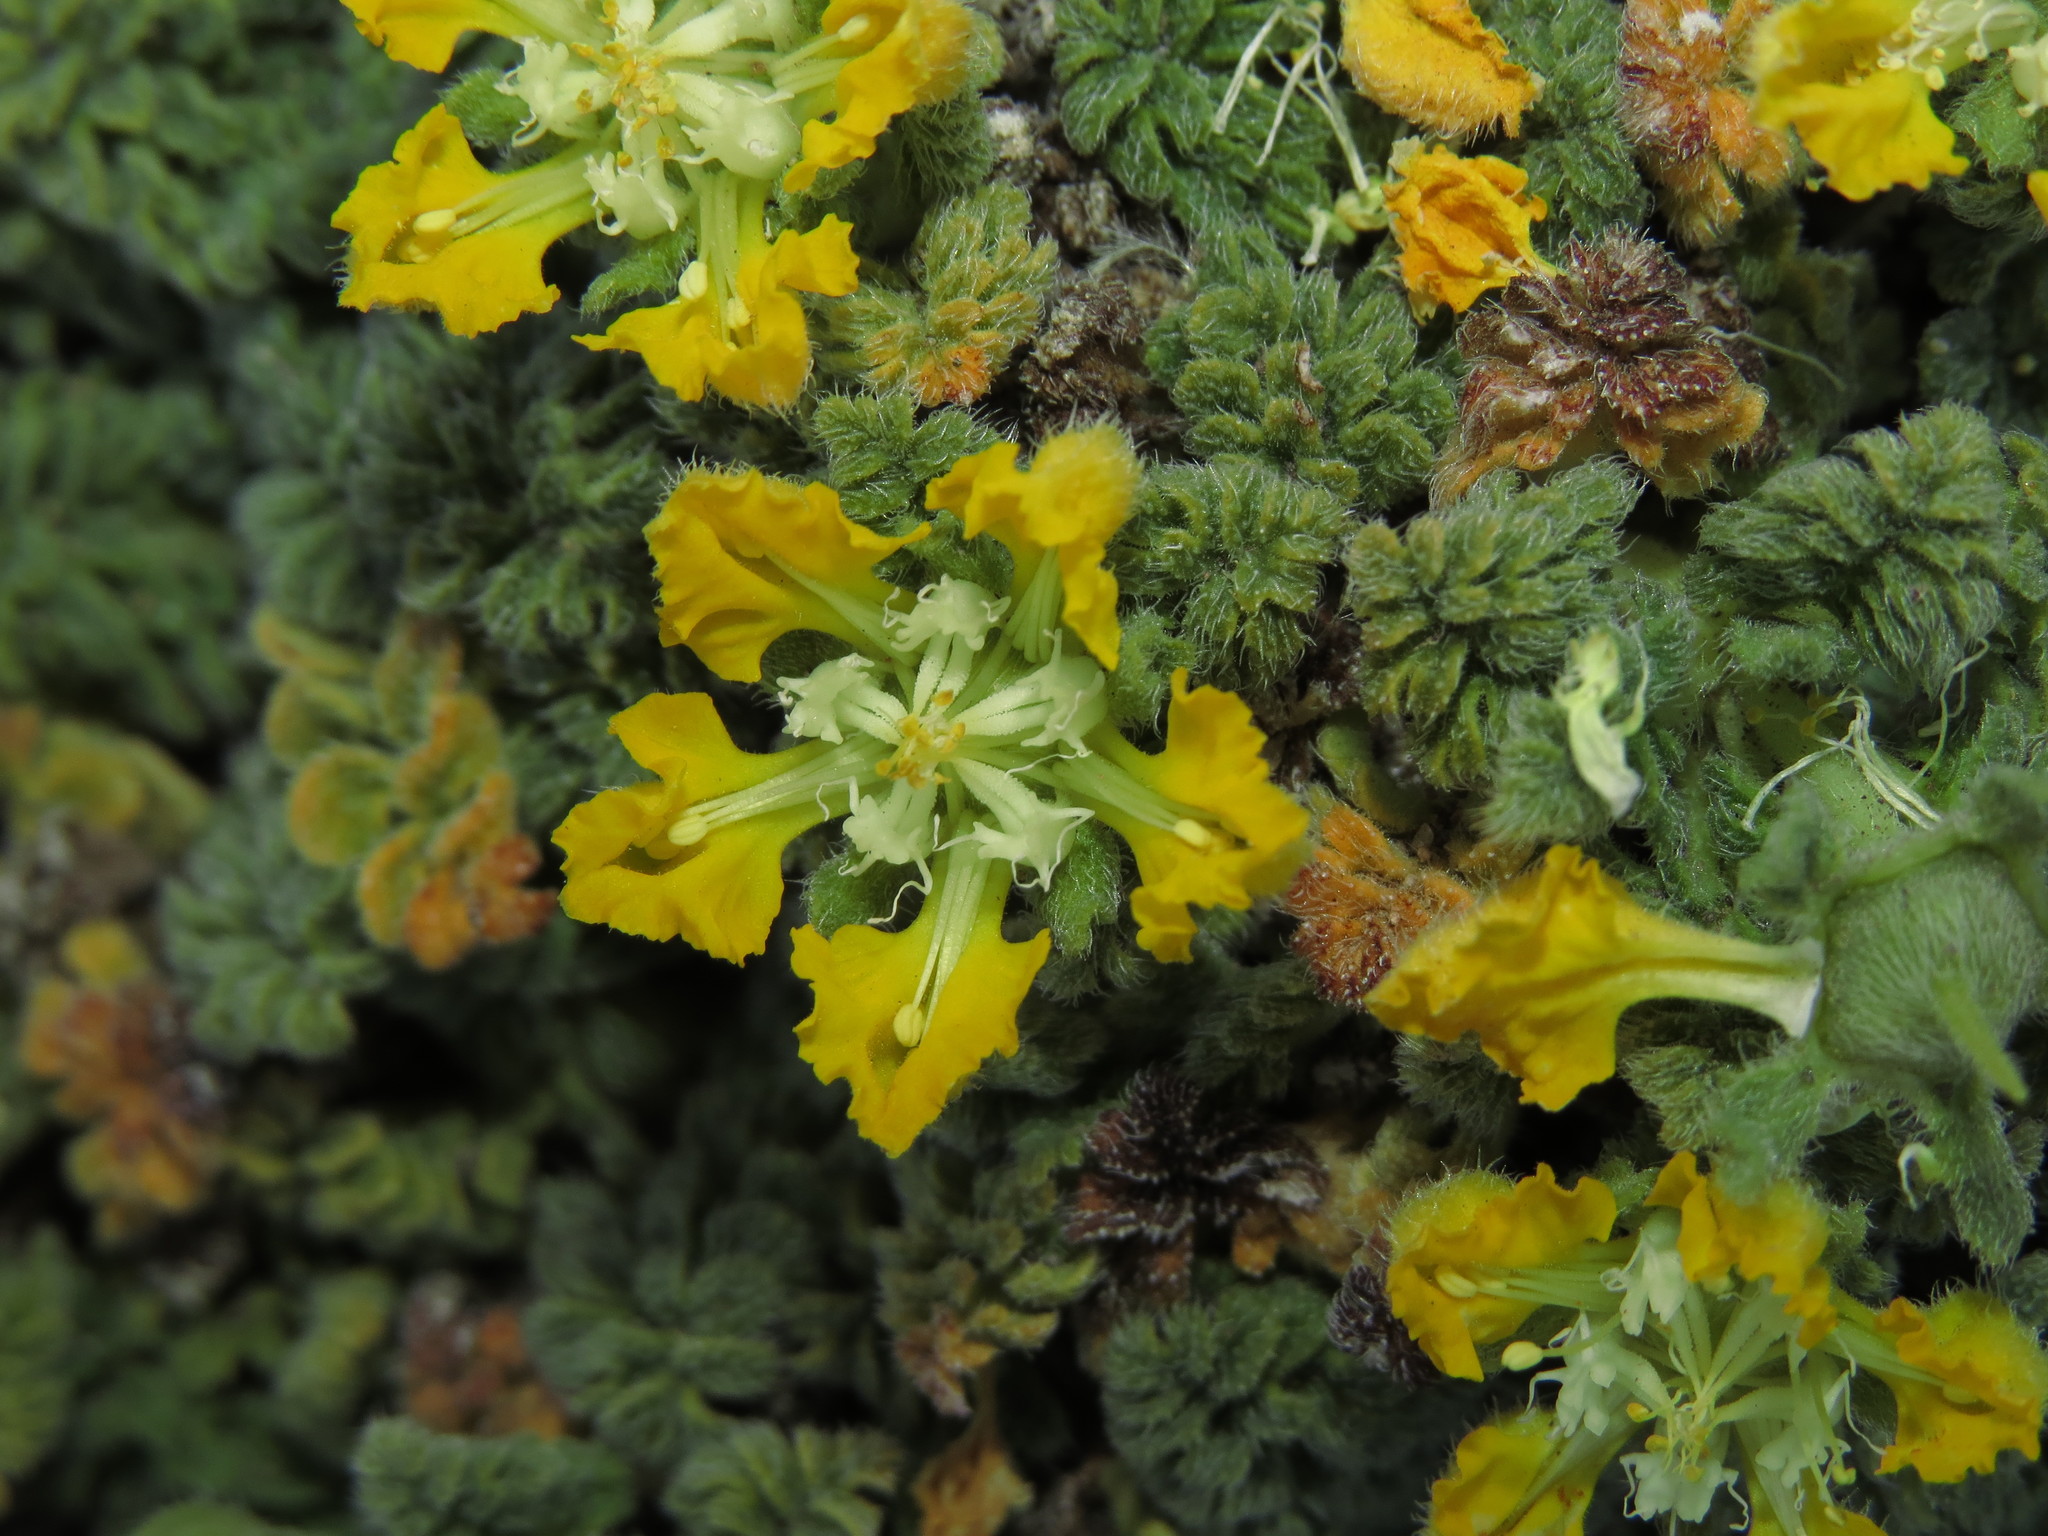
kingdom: Plantae
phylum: Tracheophyta
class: Magnoliopsida
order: Cornales
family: Loasaceae
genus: Pinnasa
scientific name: Pinnasa nana
